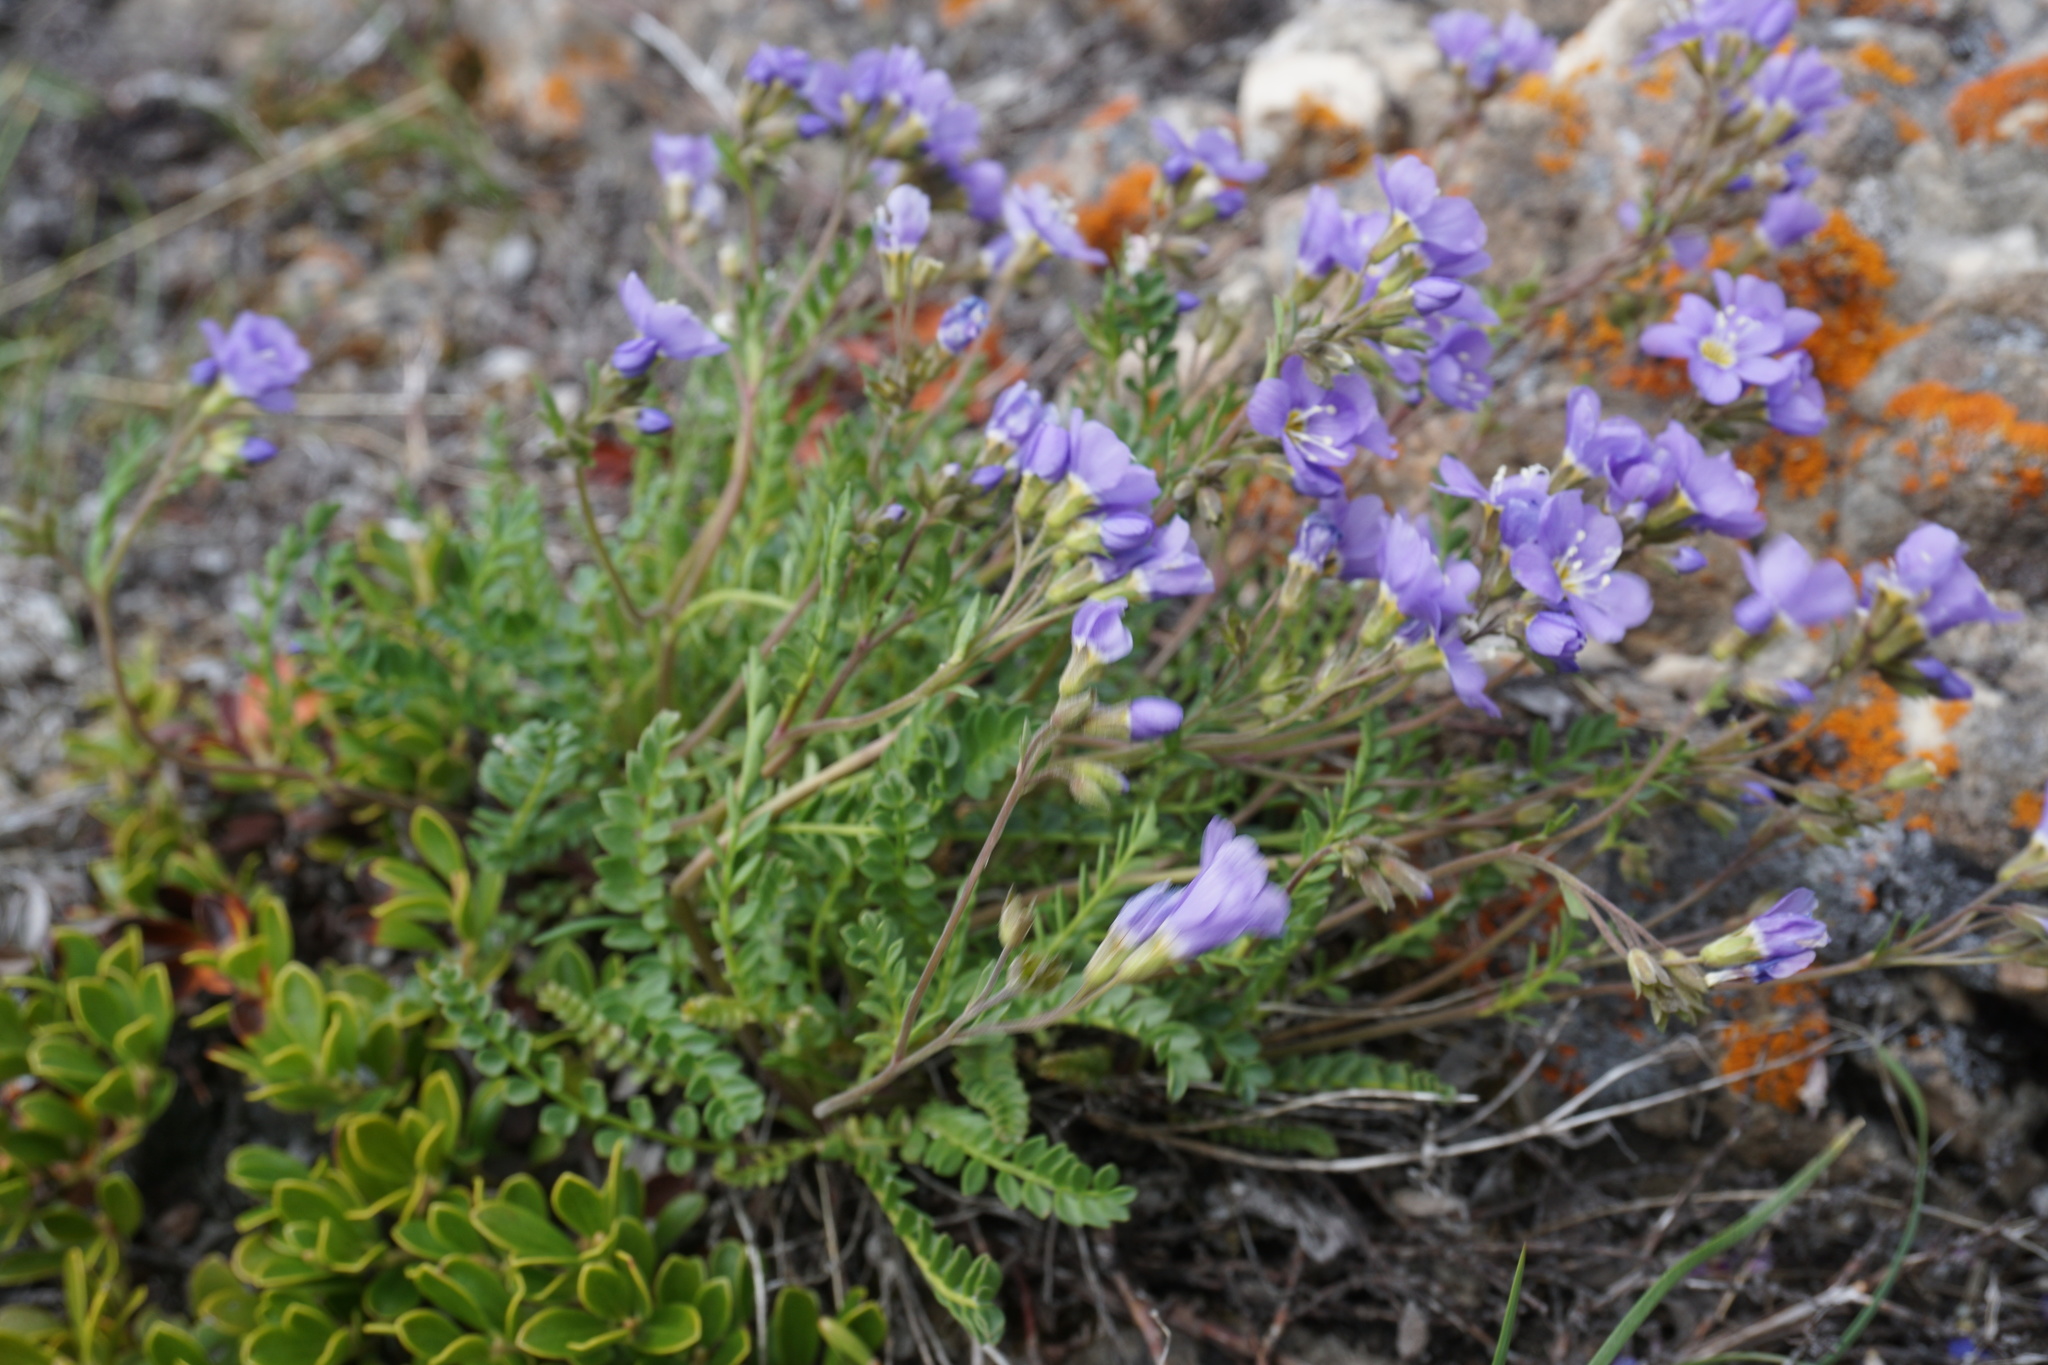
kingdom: Plantae
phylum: Tracheophyta
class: Magnoliopsida
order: Ericales
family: Polemoniaceae
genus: Polemonium
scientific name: Polemonium pulcherrimum
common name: Short jacob's-ladder
